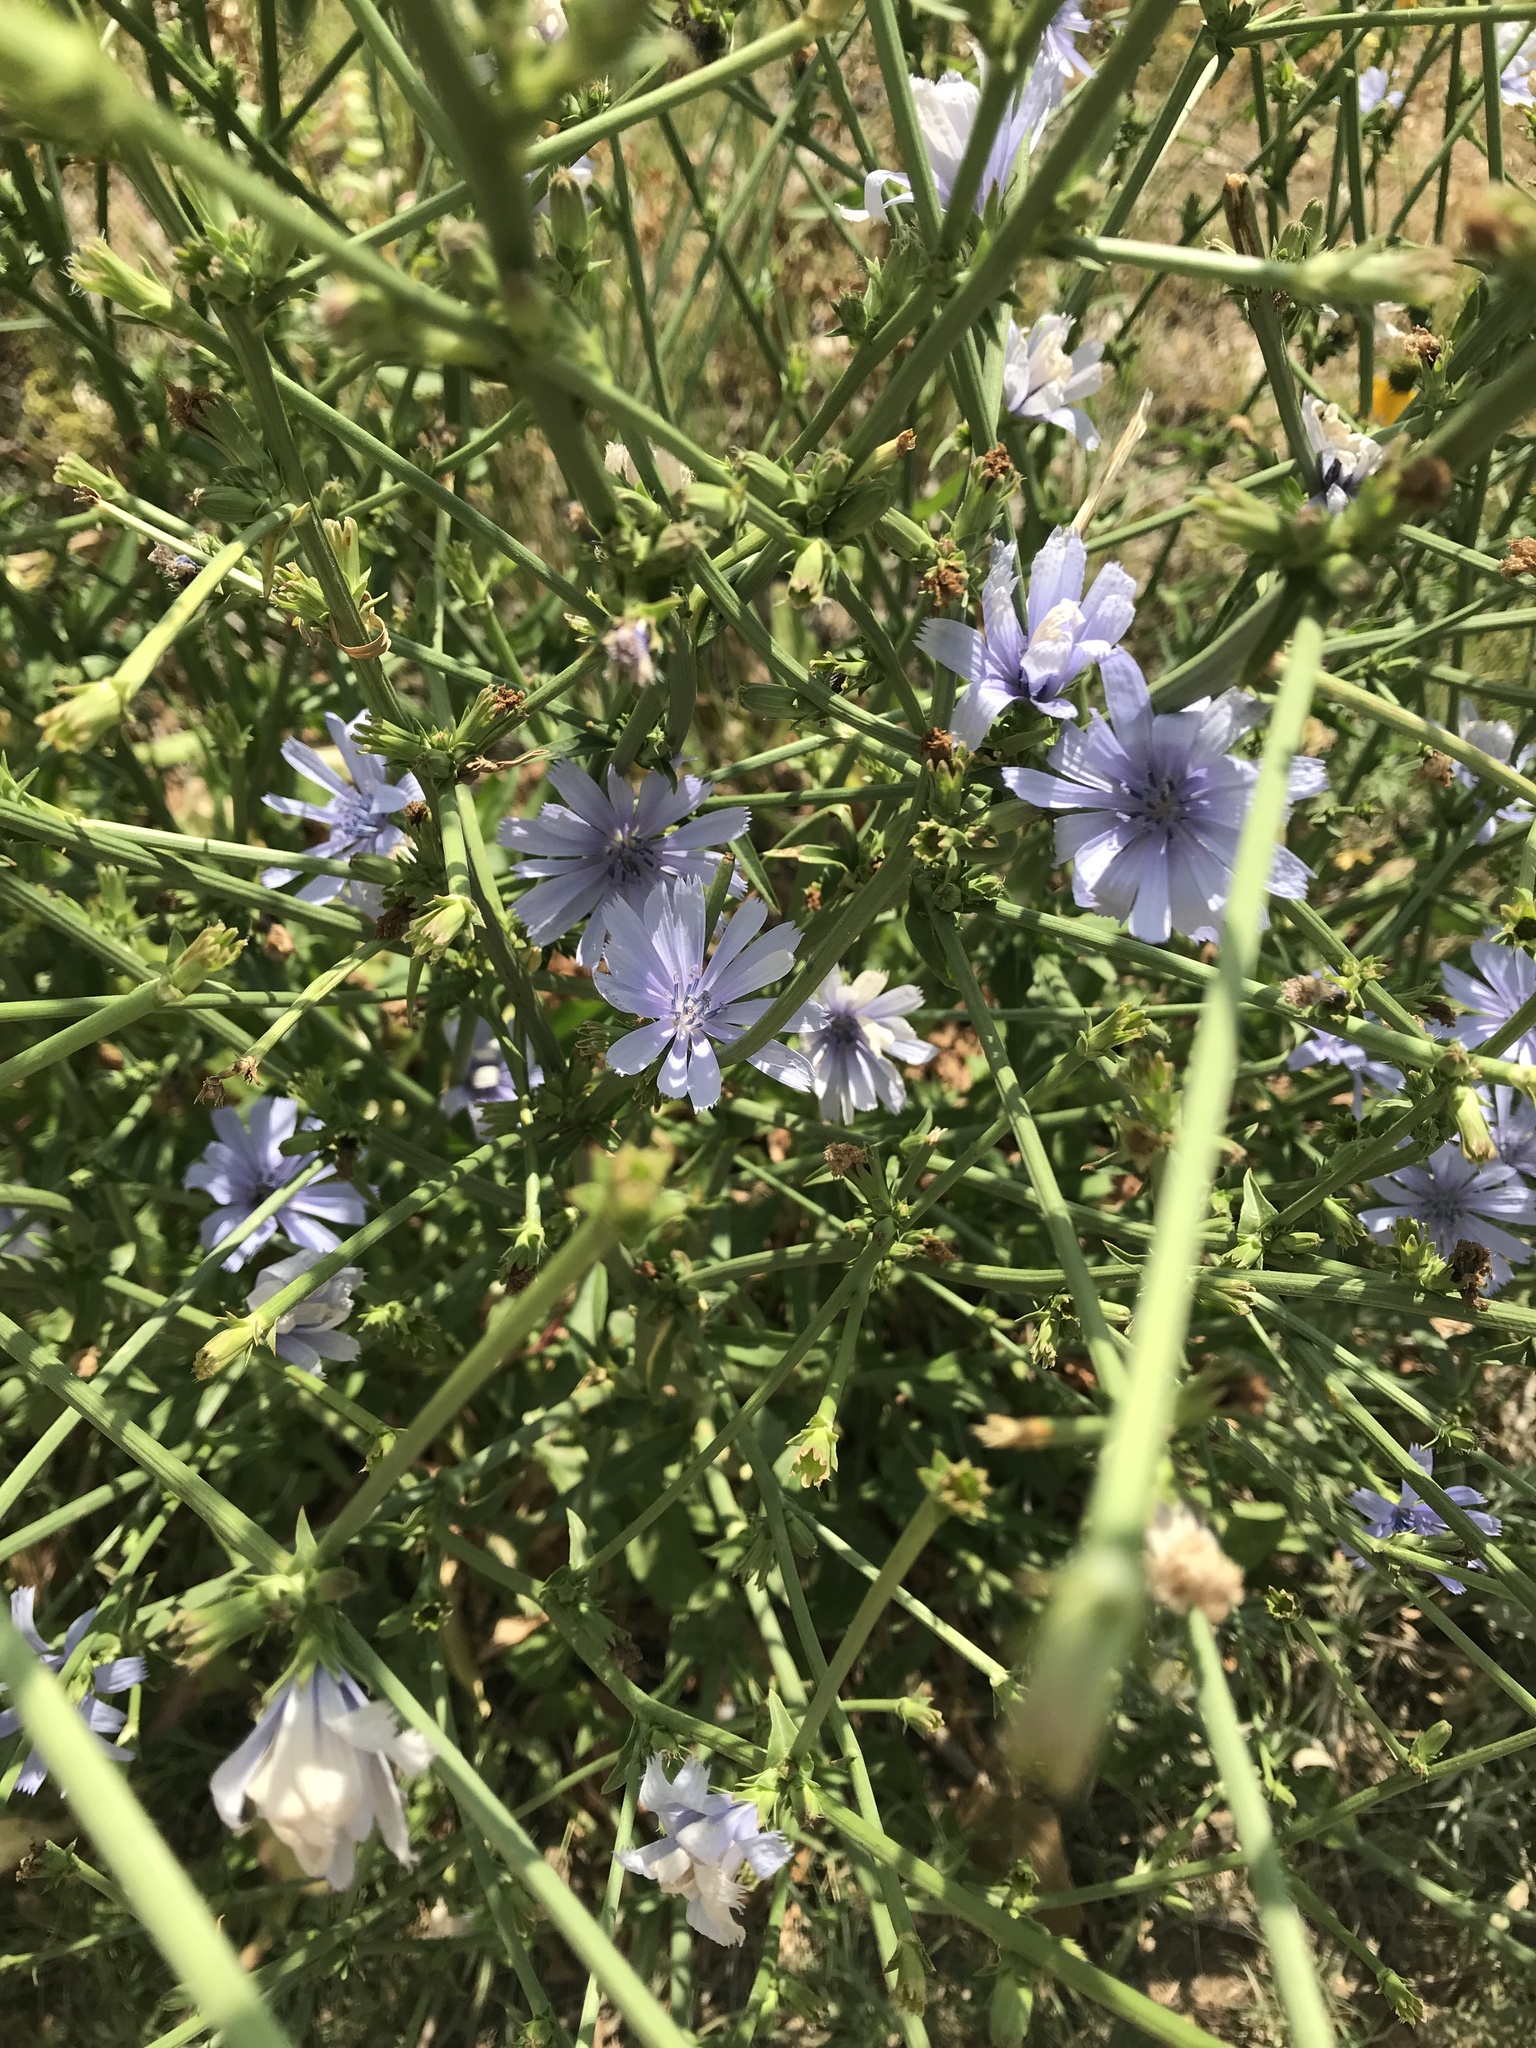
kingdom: Plantae
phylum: Tracheophyta
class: Magnoliopsida
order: Asterales
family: Asteraceae
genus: Cichorium
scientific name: Cichorium intybus
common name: Chicory
